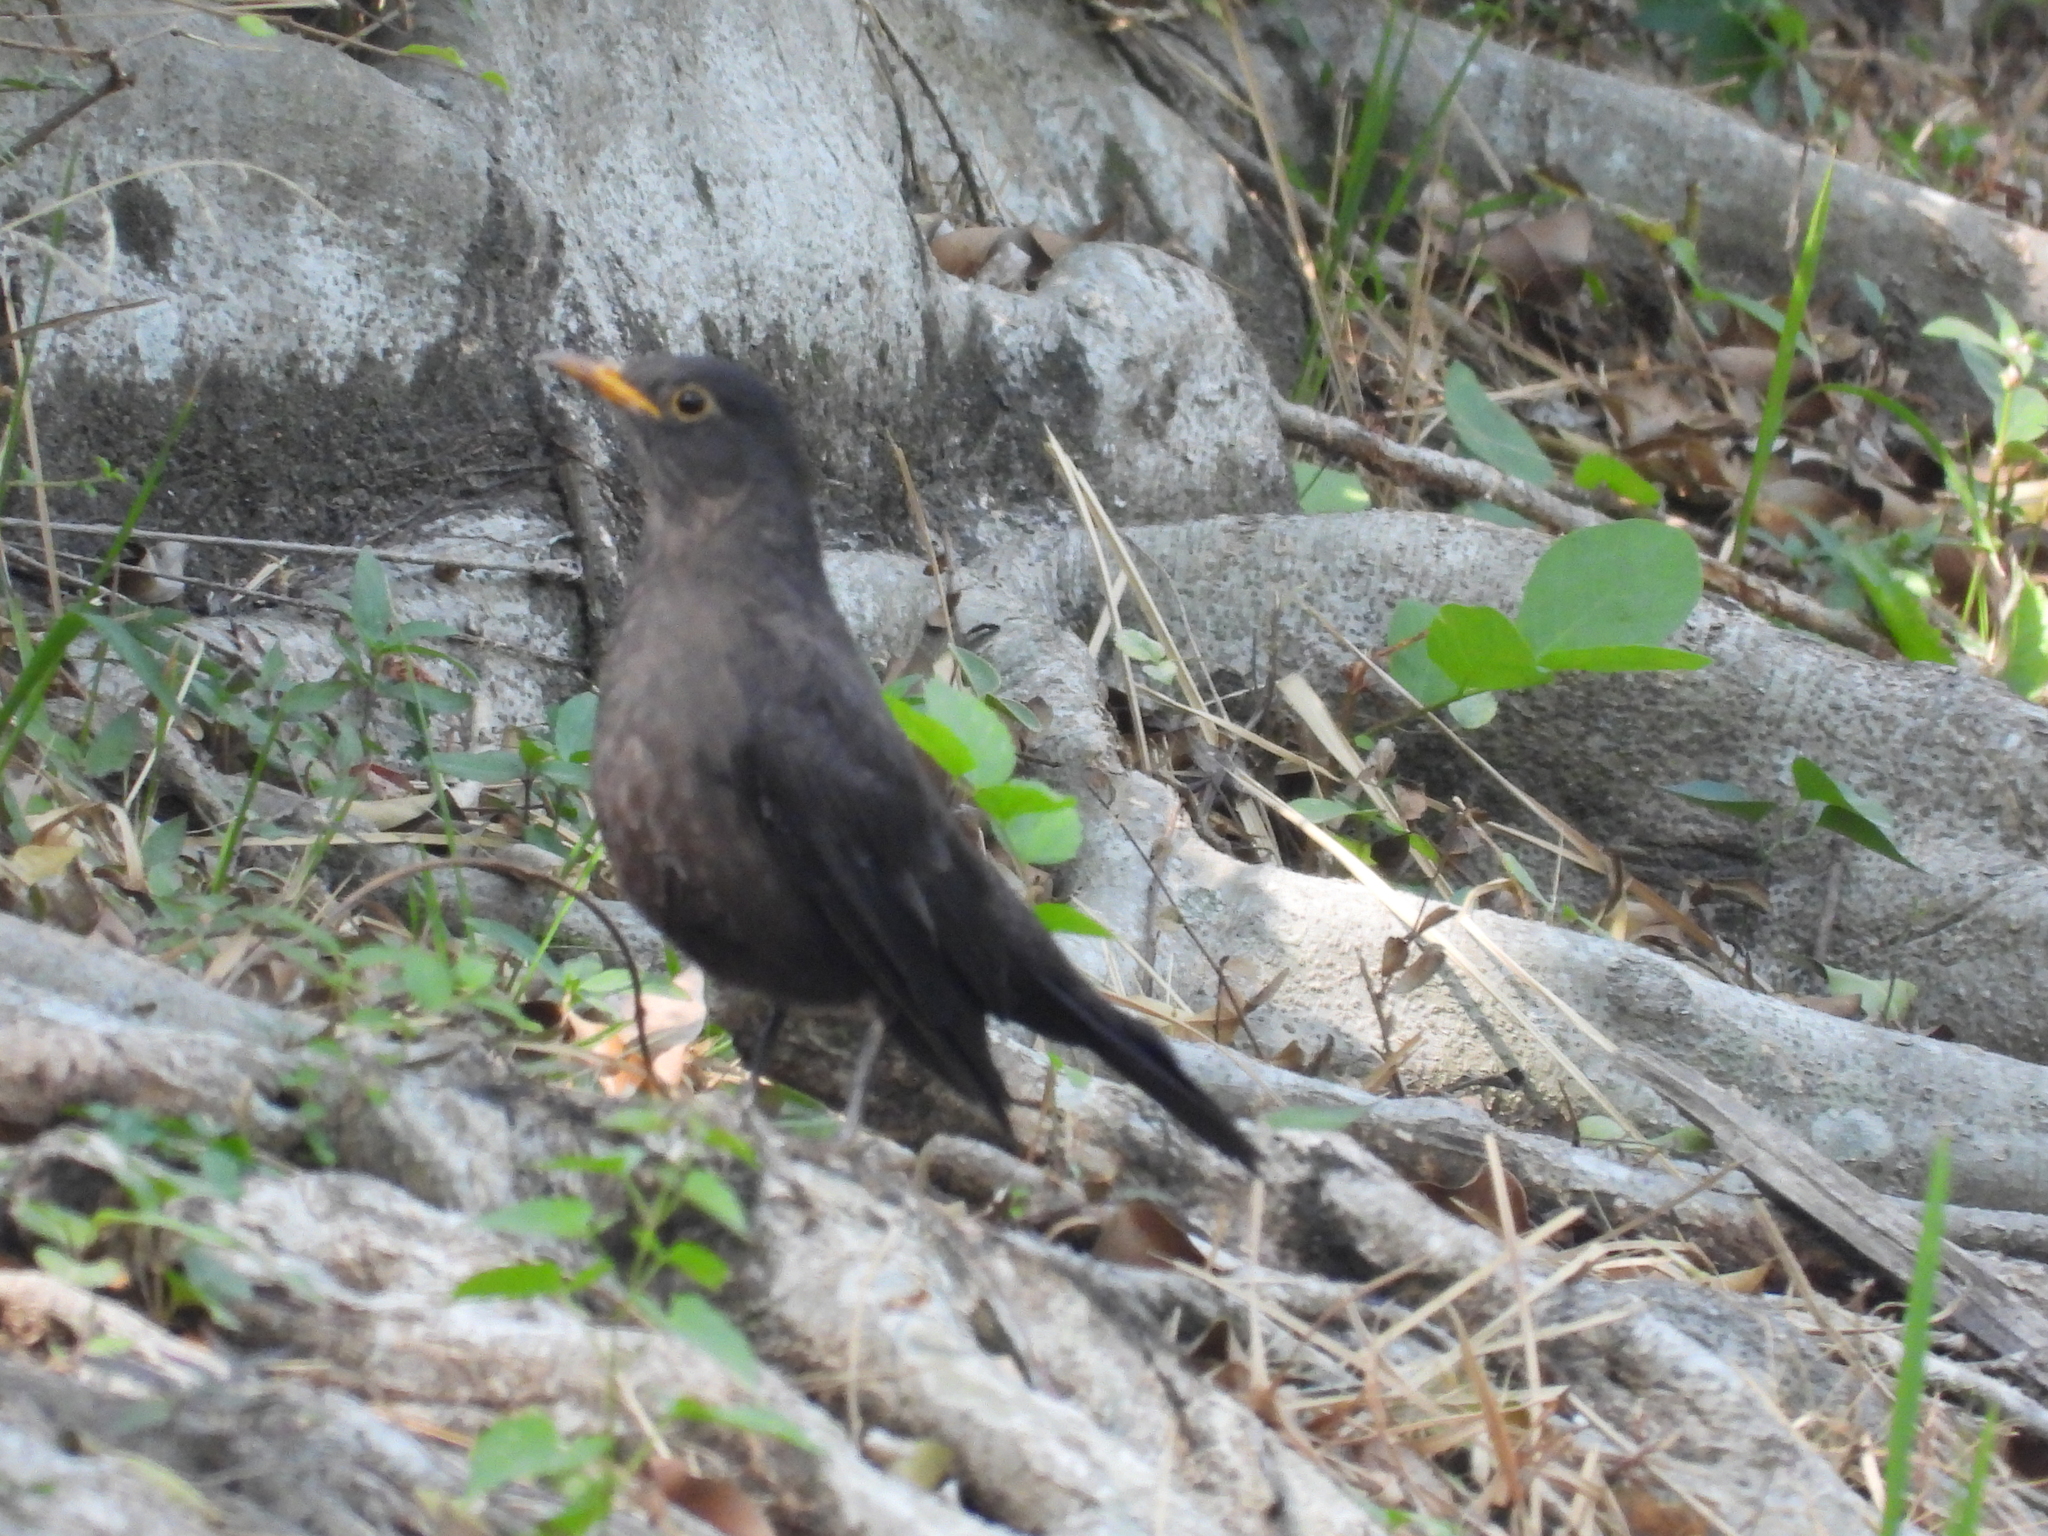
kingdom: Animalia
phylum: Chordata
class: Aves
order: Passeriformes
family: Turdidae
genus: Turdus
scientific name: Turdus mandarinus
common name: Chinese blackbird
